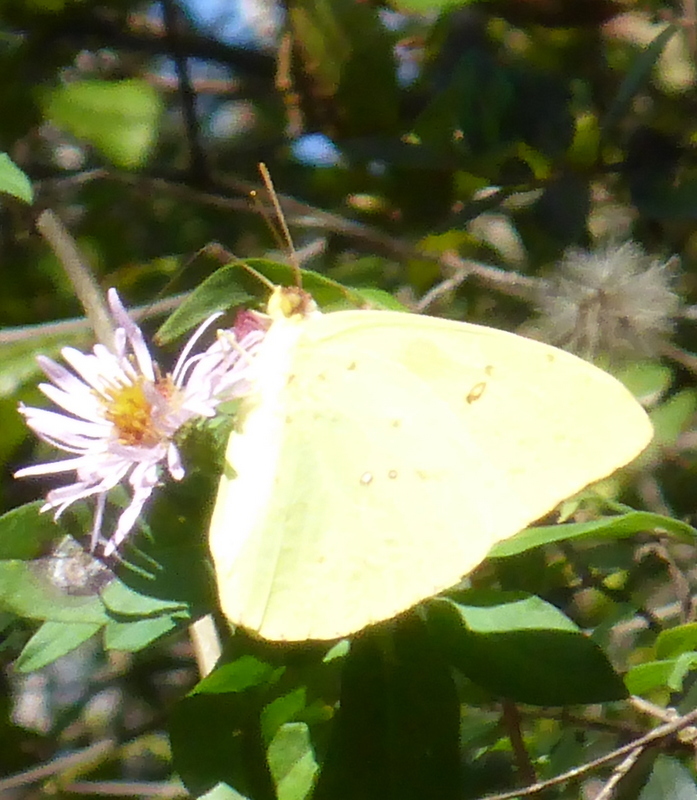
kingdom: Animalia
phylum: Arthropoda
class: Insecta
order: Lepidoptera
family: Pieridae
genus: Phoebis
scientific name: Phoebis sennae
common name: Cloudless sulphur
